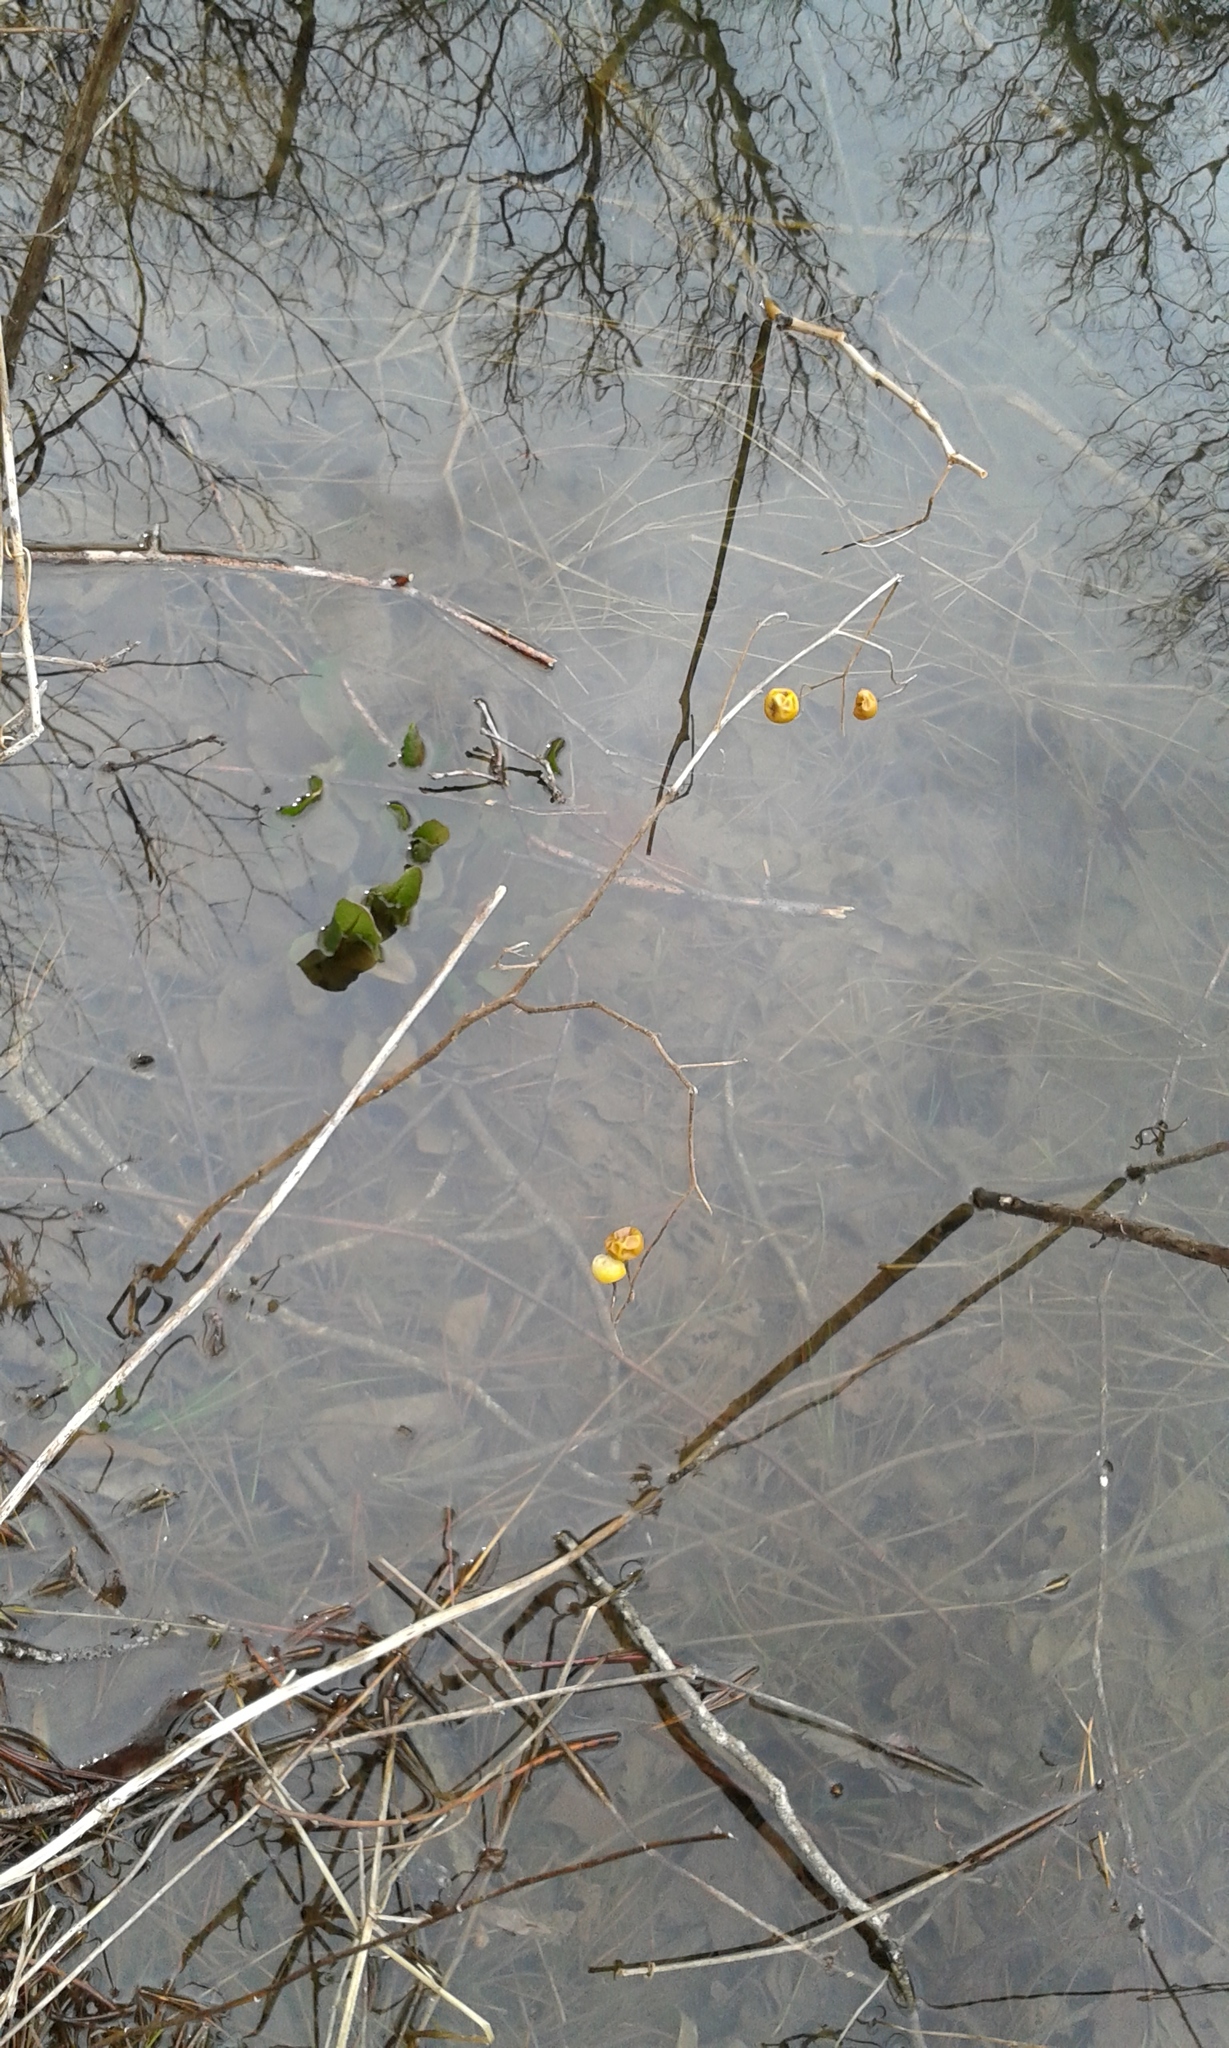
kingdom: Plantae
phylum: Tracheophyta
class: Magnoliopsida
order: Solanales
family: Solanaceae
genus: Solanum
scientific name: Solanum carolinense
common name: Horse-nettle
